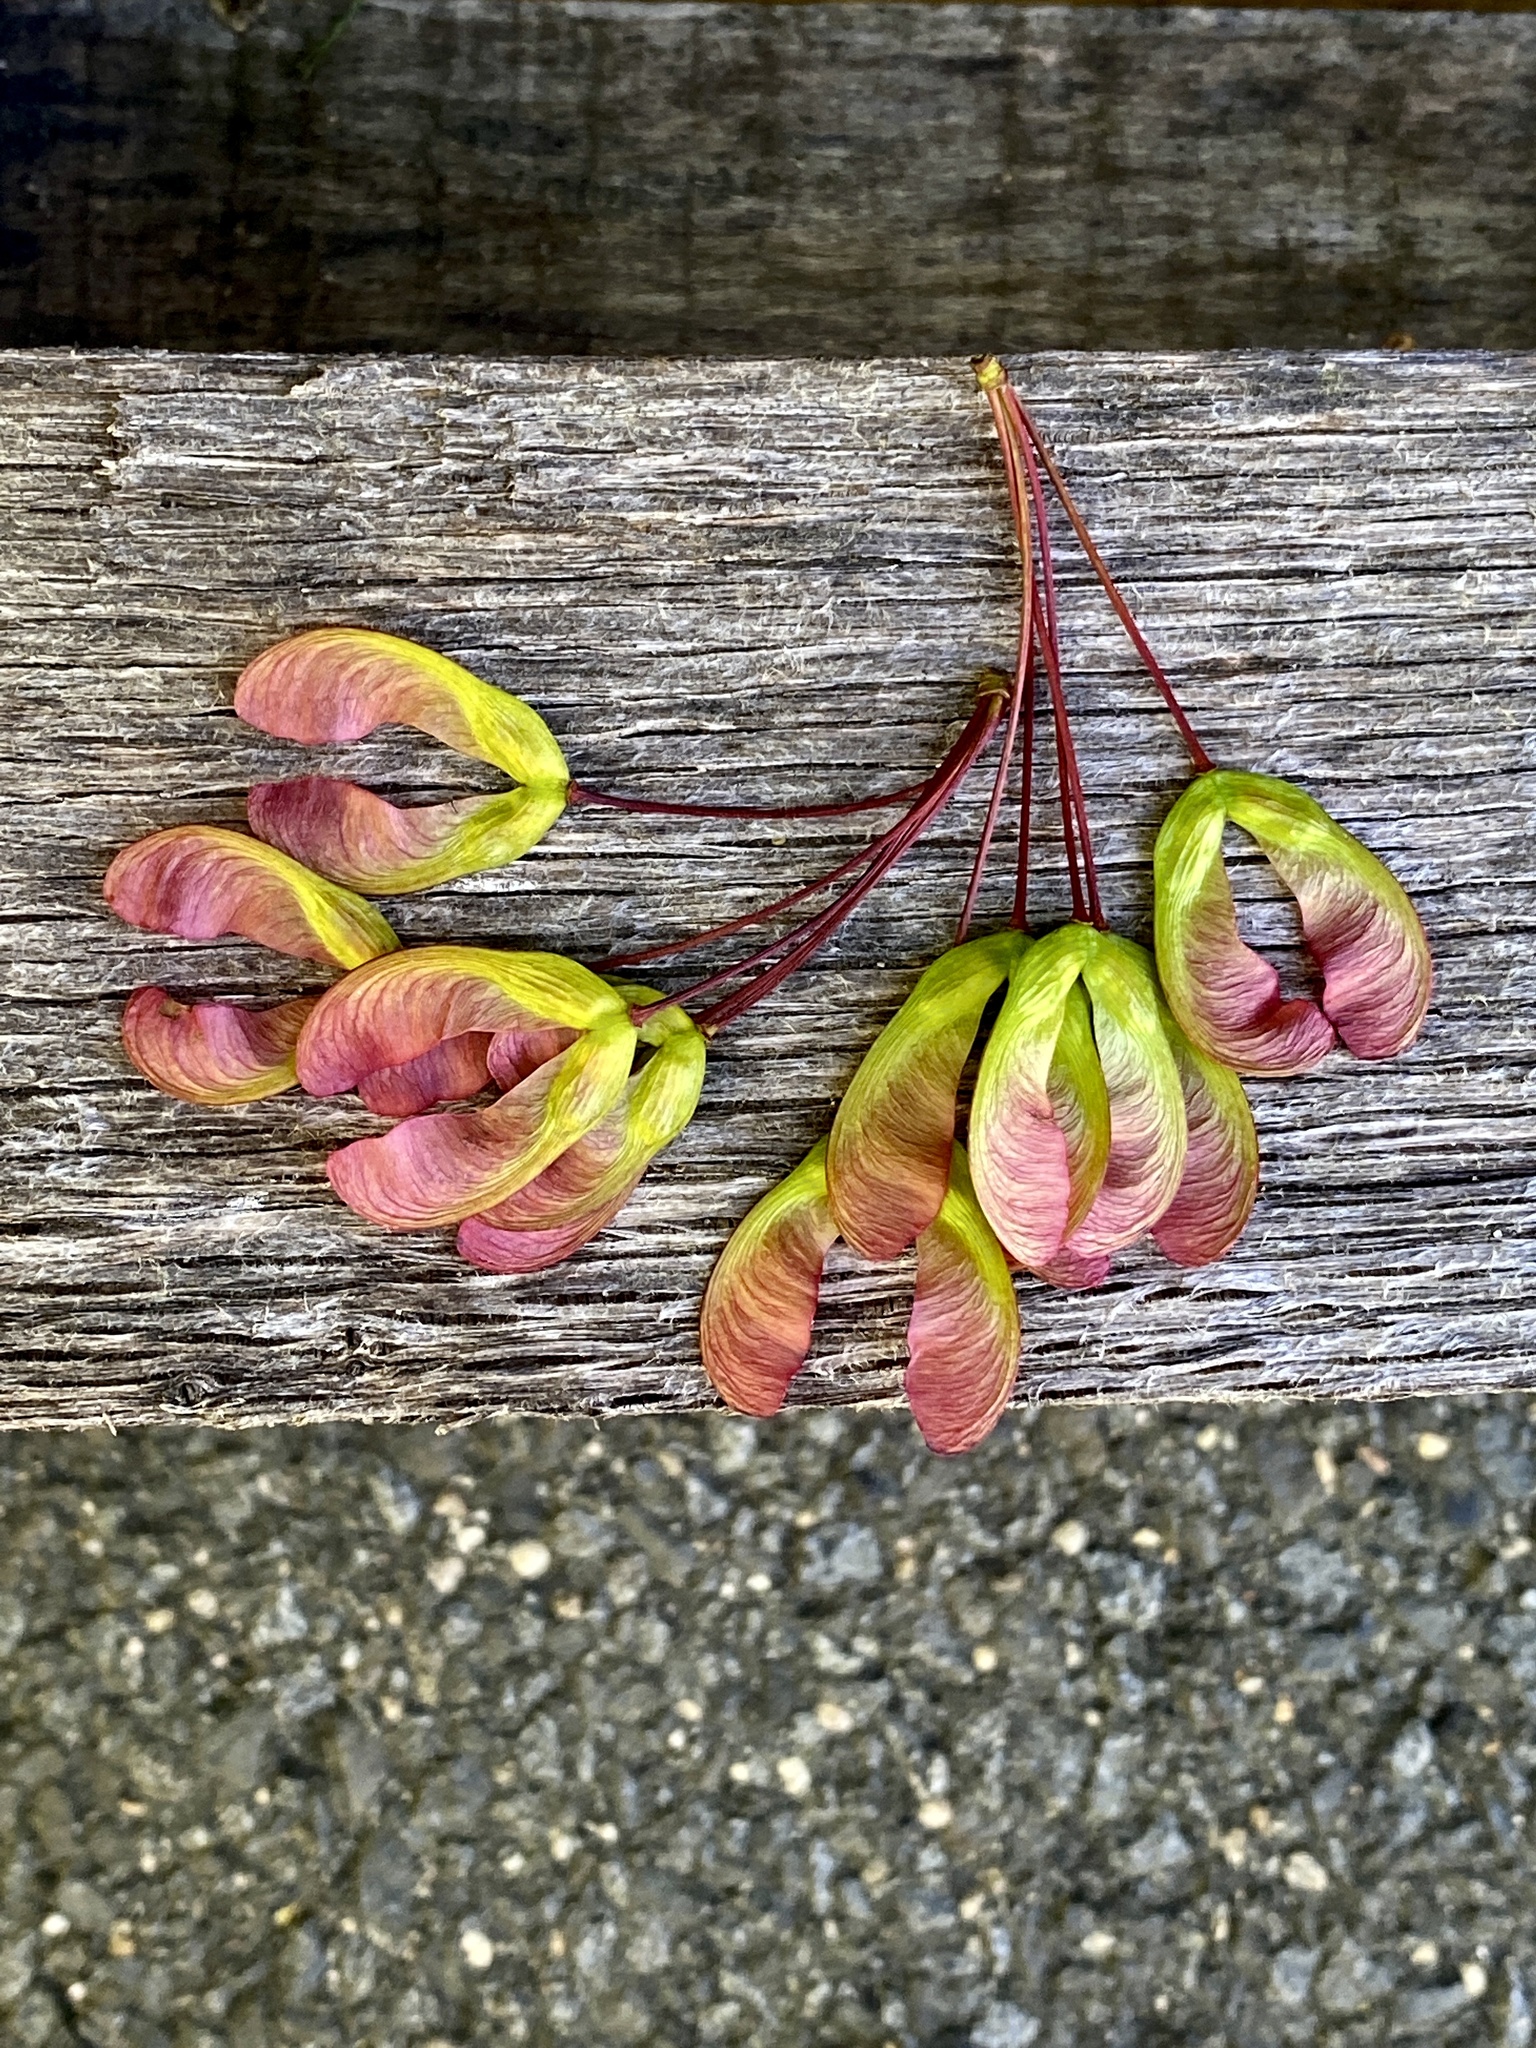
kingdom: Plantae
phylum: Tracheophyta
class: Magnoliopsida
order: Sapindales
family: Sapindaceae
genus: Acer
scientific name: Acer rubrum
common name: Red maple
